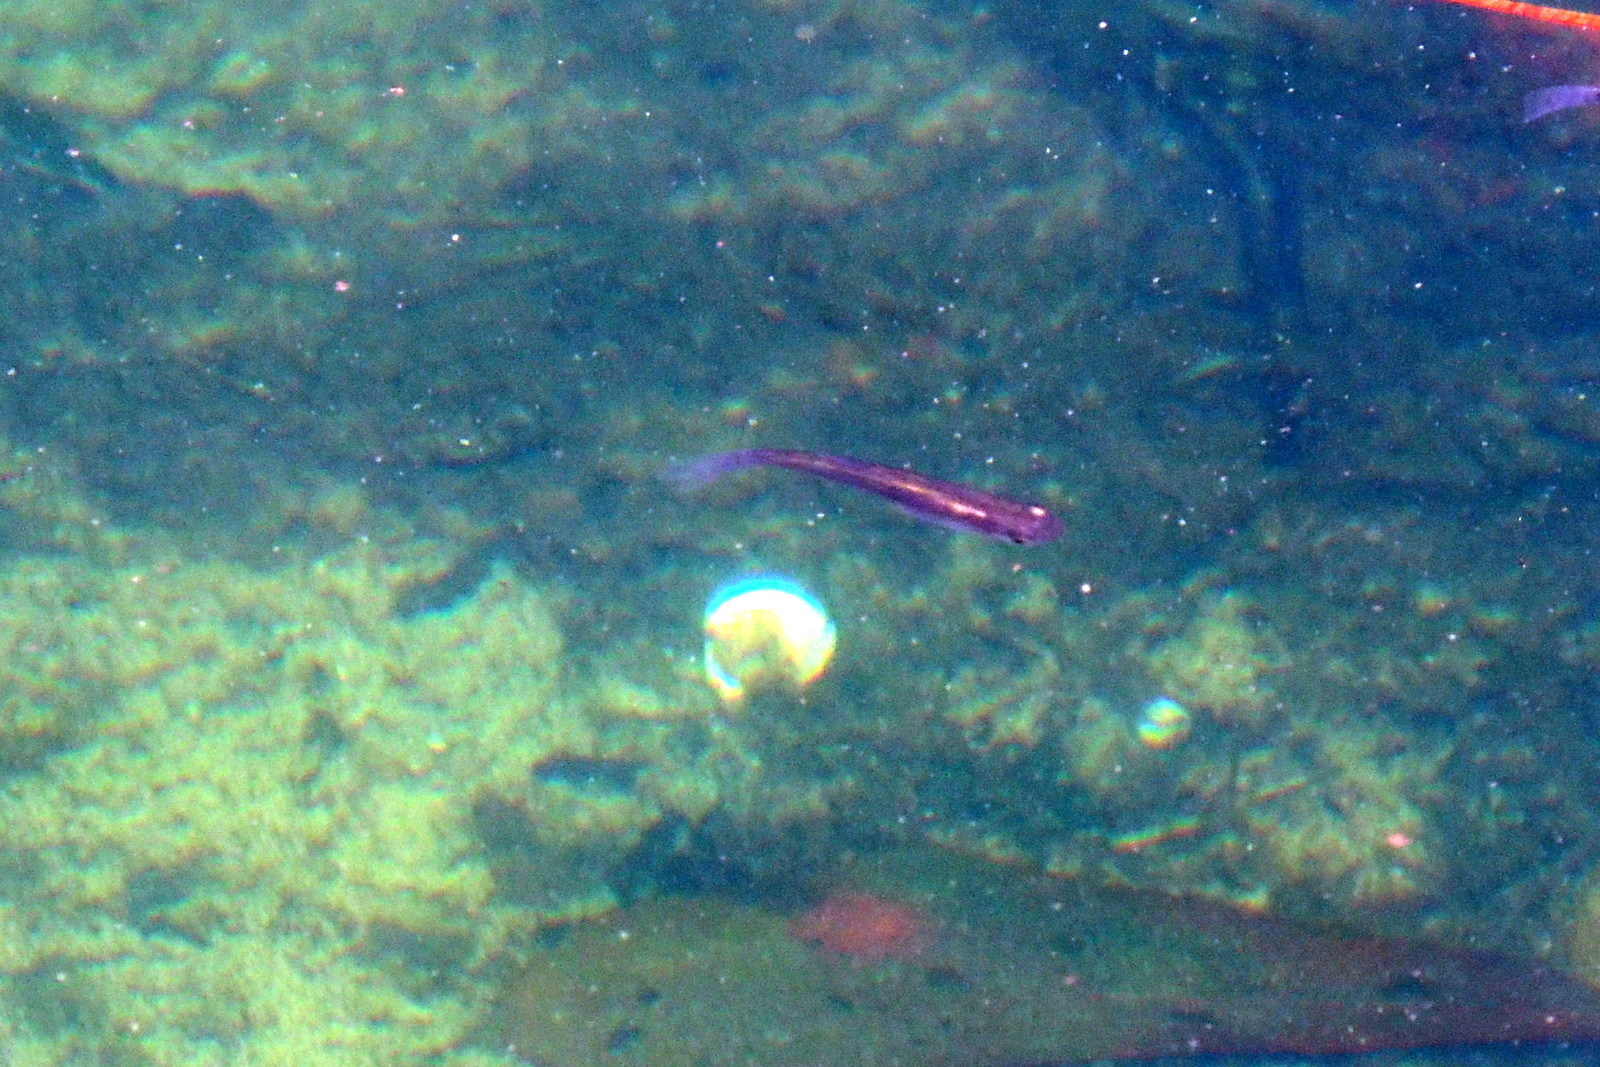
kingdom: Animalia
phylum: Chordata
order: Cyprinodontiformes
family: Poeciliidae
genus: Poecilia
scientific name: Poecilia reticulata
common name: Guppy
